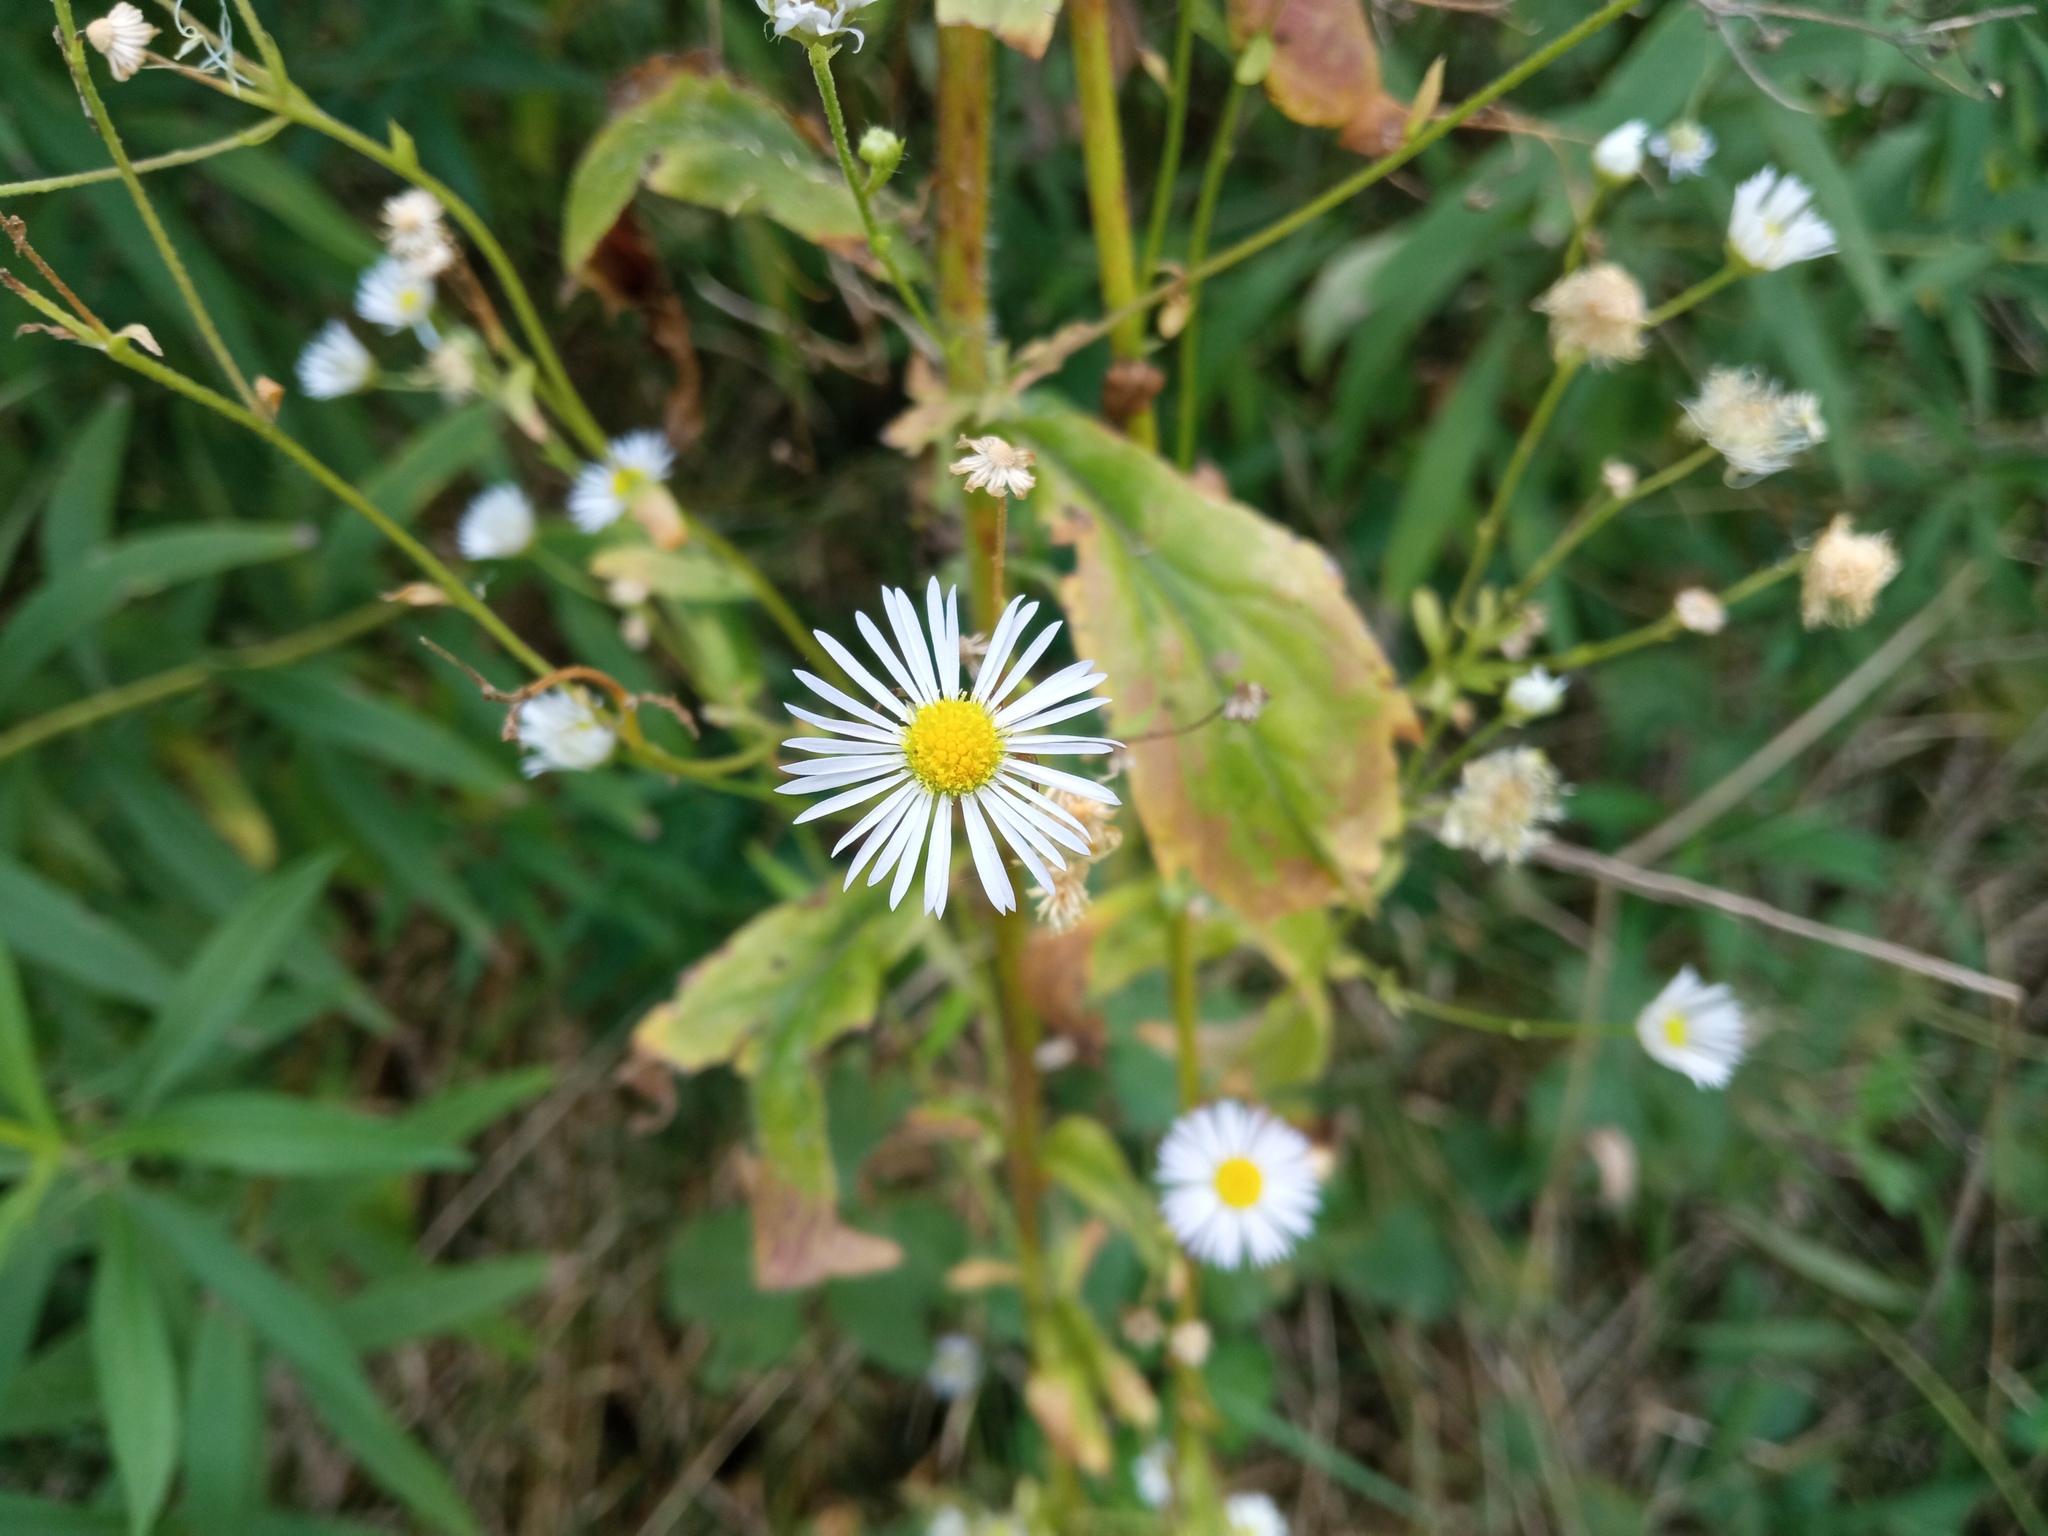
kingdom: Plantae
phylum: Tracheophyta
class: Magnoliopsida
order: Asterales
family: Asteraceae
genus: Erigeron
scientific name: Erigeron annuus
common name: Tall fleabane
